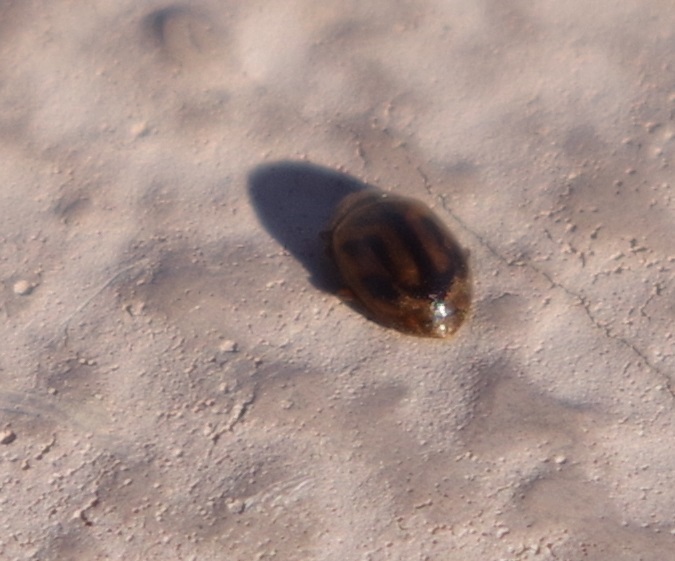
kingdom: Animalia
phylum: Arthropoda
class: Insecta
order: Coleoptera
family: Coccinellidae
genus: Rhyzobius
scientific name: Rhyzobius chrysomeloides
